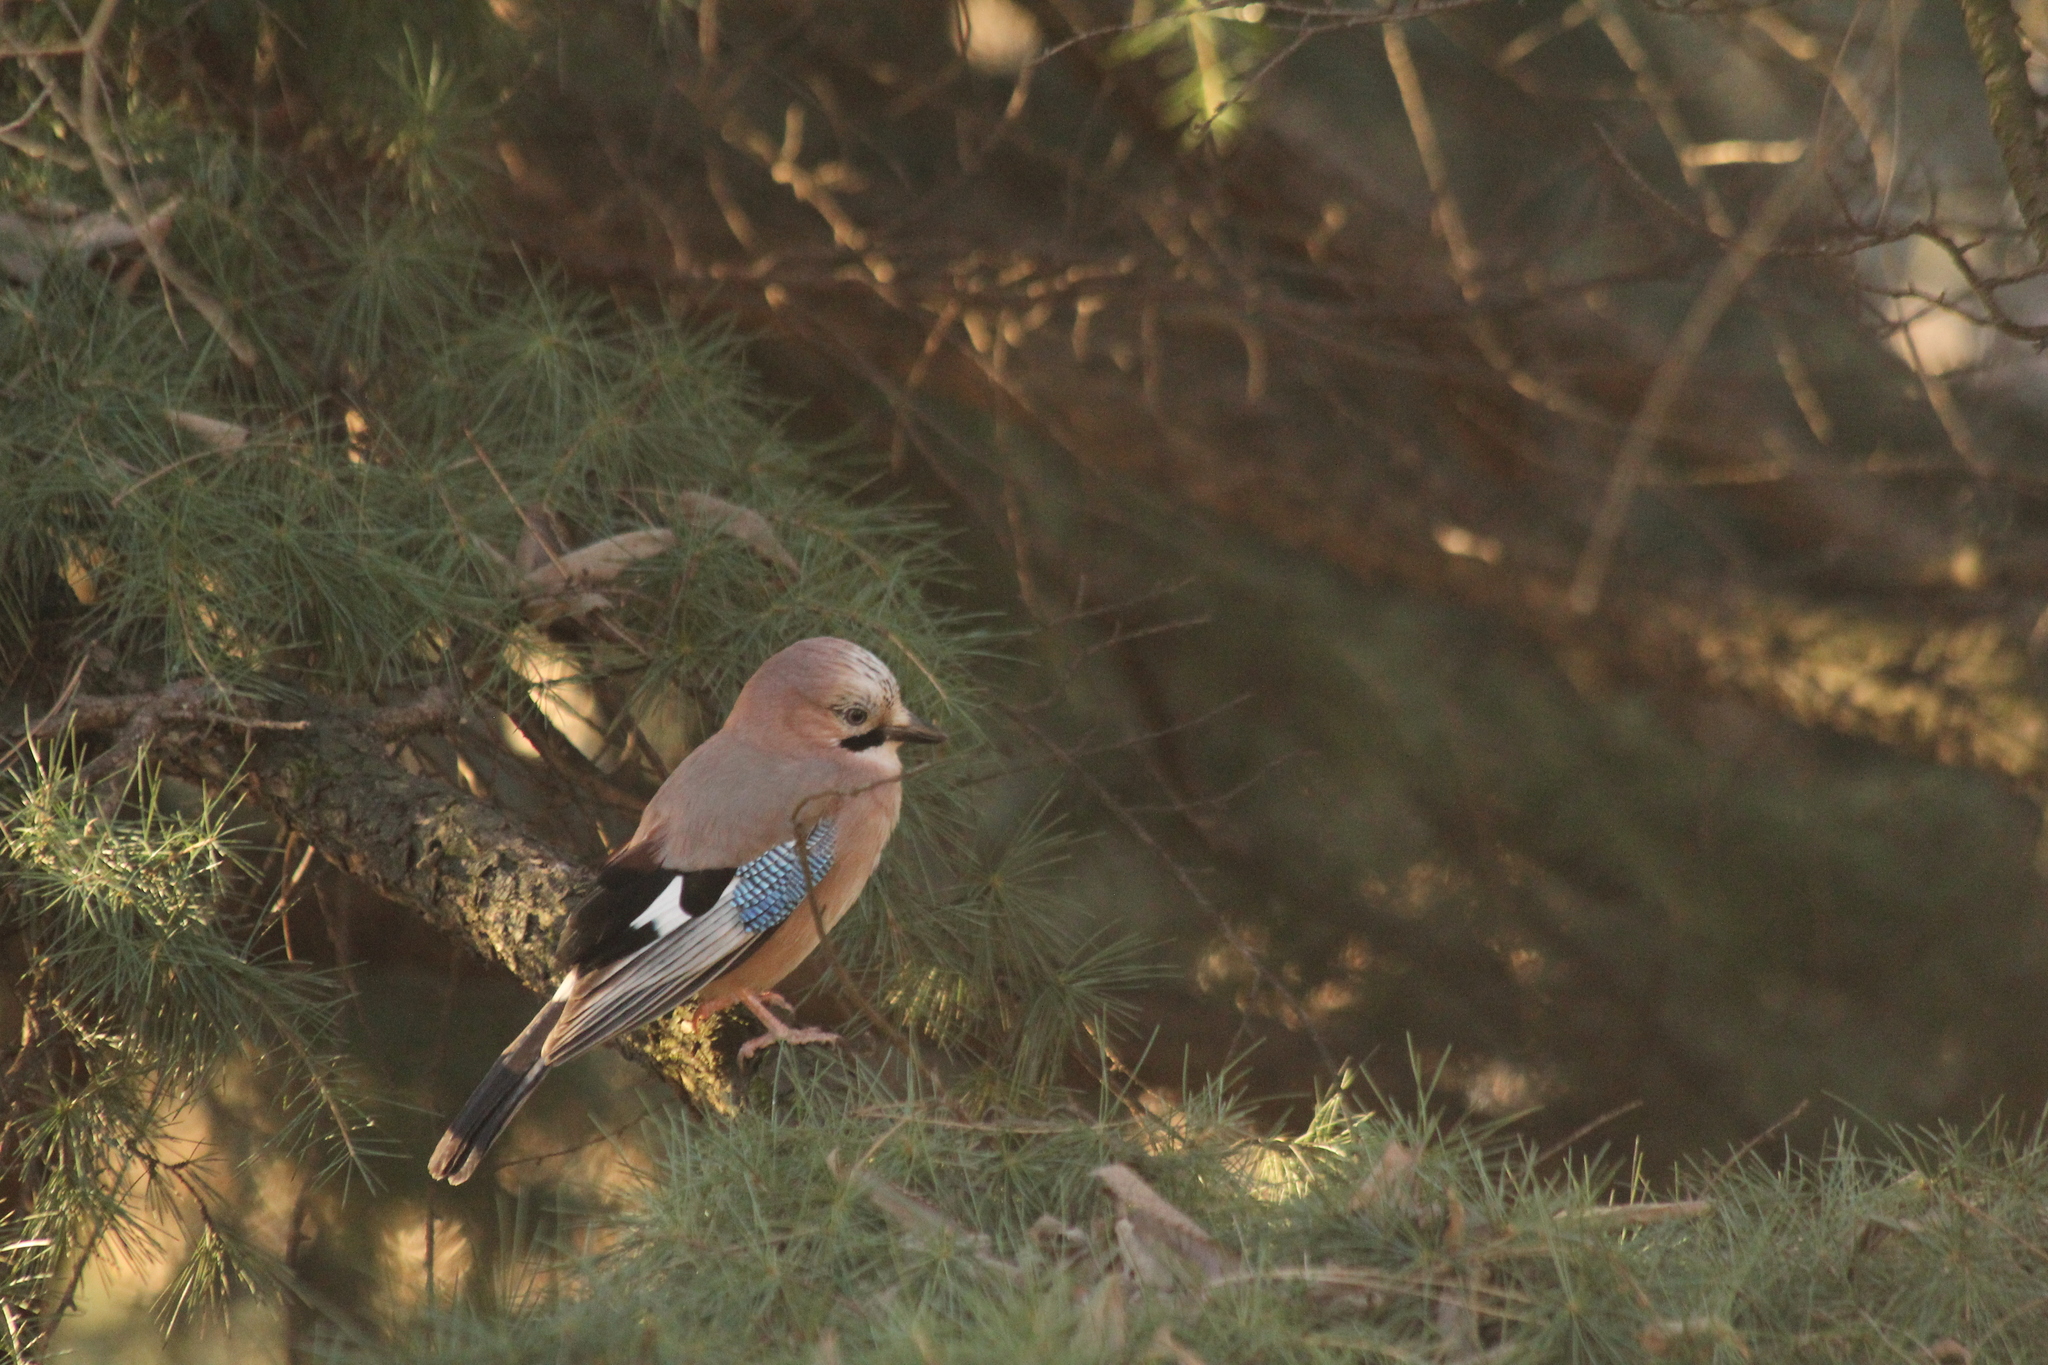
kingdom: Animalia
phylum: Chordata
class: Aves
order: Passeriformes
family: Corvidae
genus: Garrulus
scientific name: Garrulus glandarius
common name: Eurasian jay
